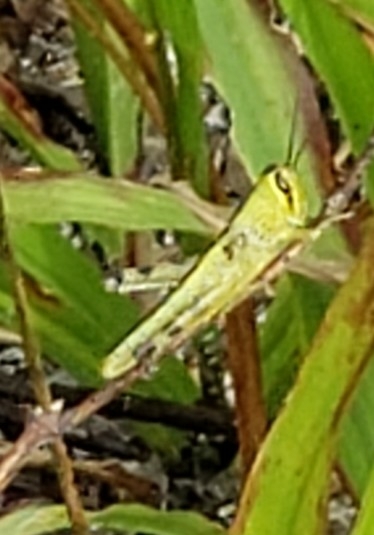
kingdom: Animalia
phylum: Arthropoda
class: Insecta
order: Orthoptera
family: Acrididae
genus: Schistocerca
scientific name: Schistocerca americana
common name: American bird locust
